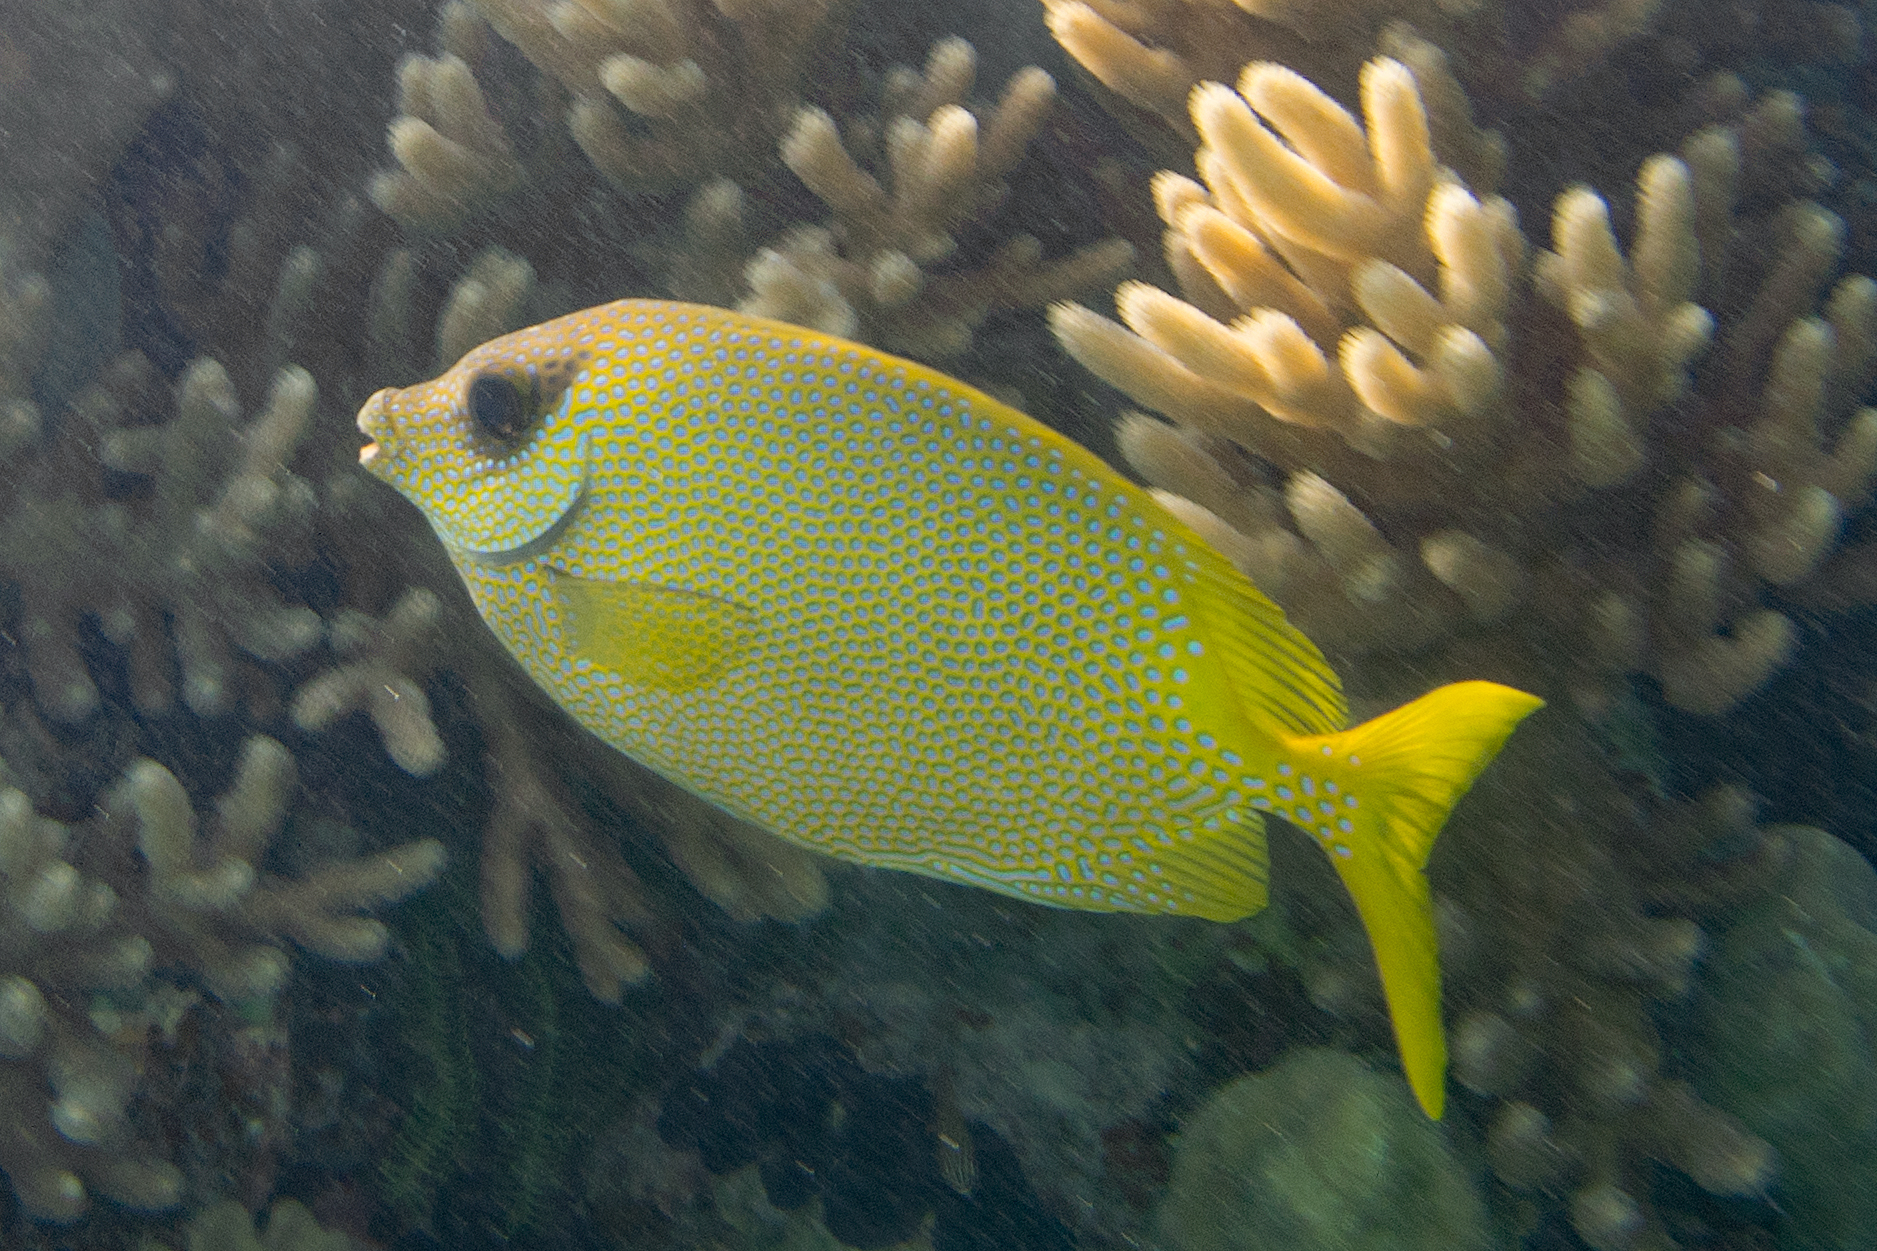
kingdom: Animalia
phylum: Chordata
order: Perciformes
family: Siganidae
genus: Siganus
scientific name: Siganus corallinus
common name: Coral rabbitfish
